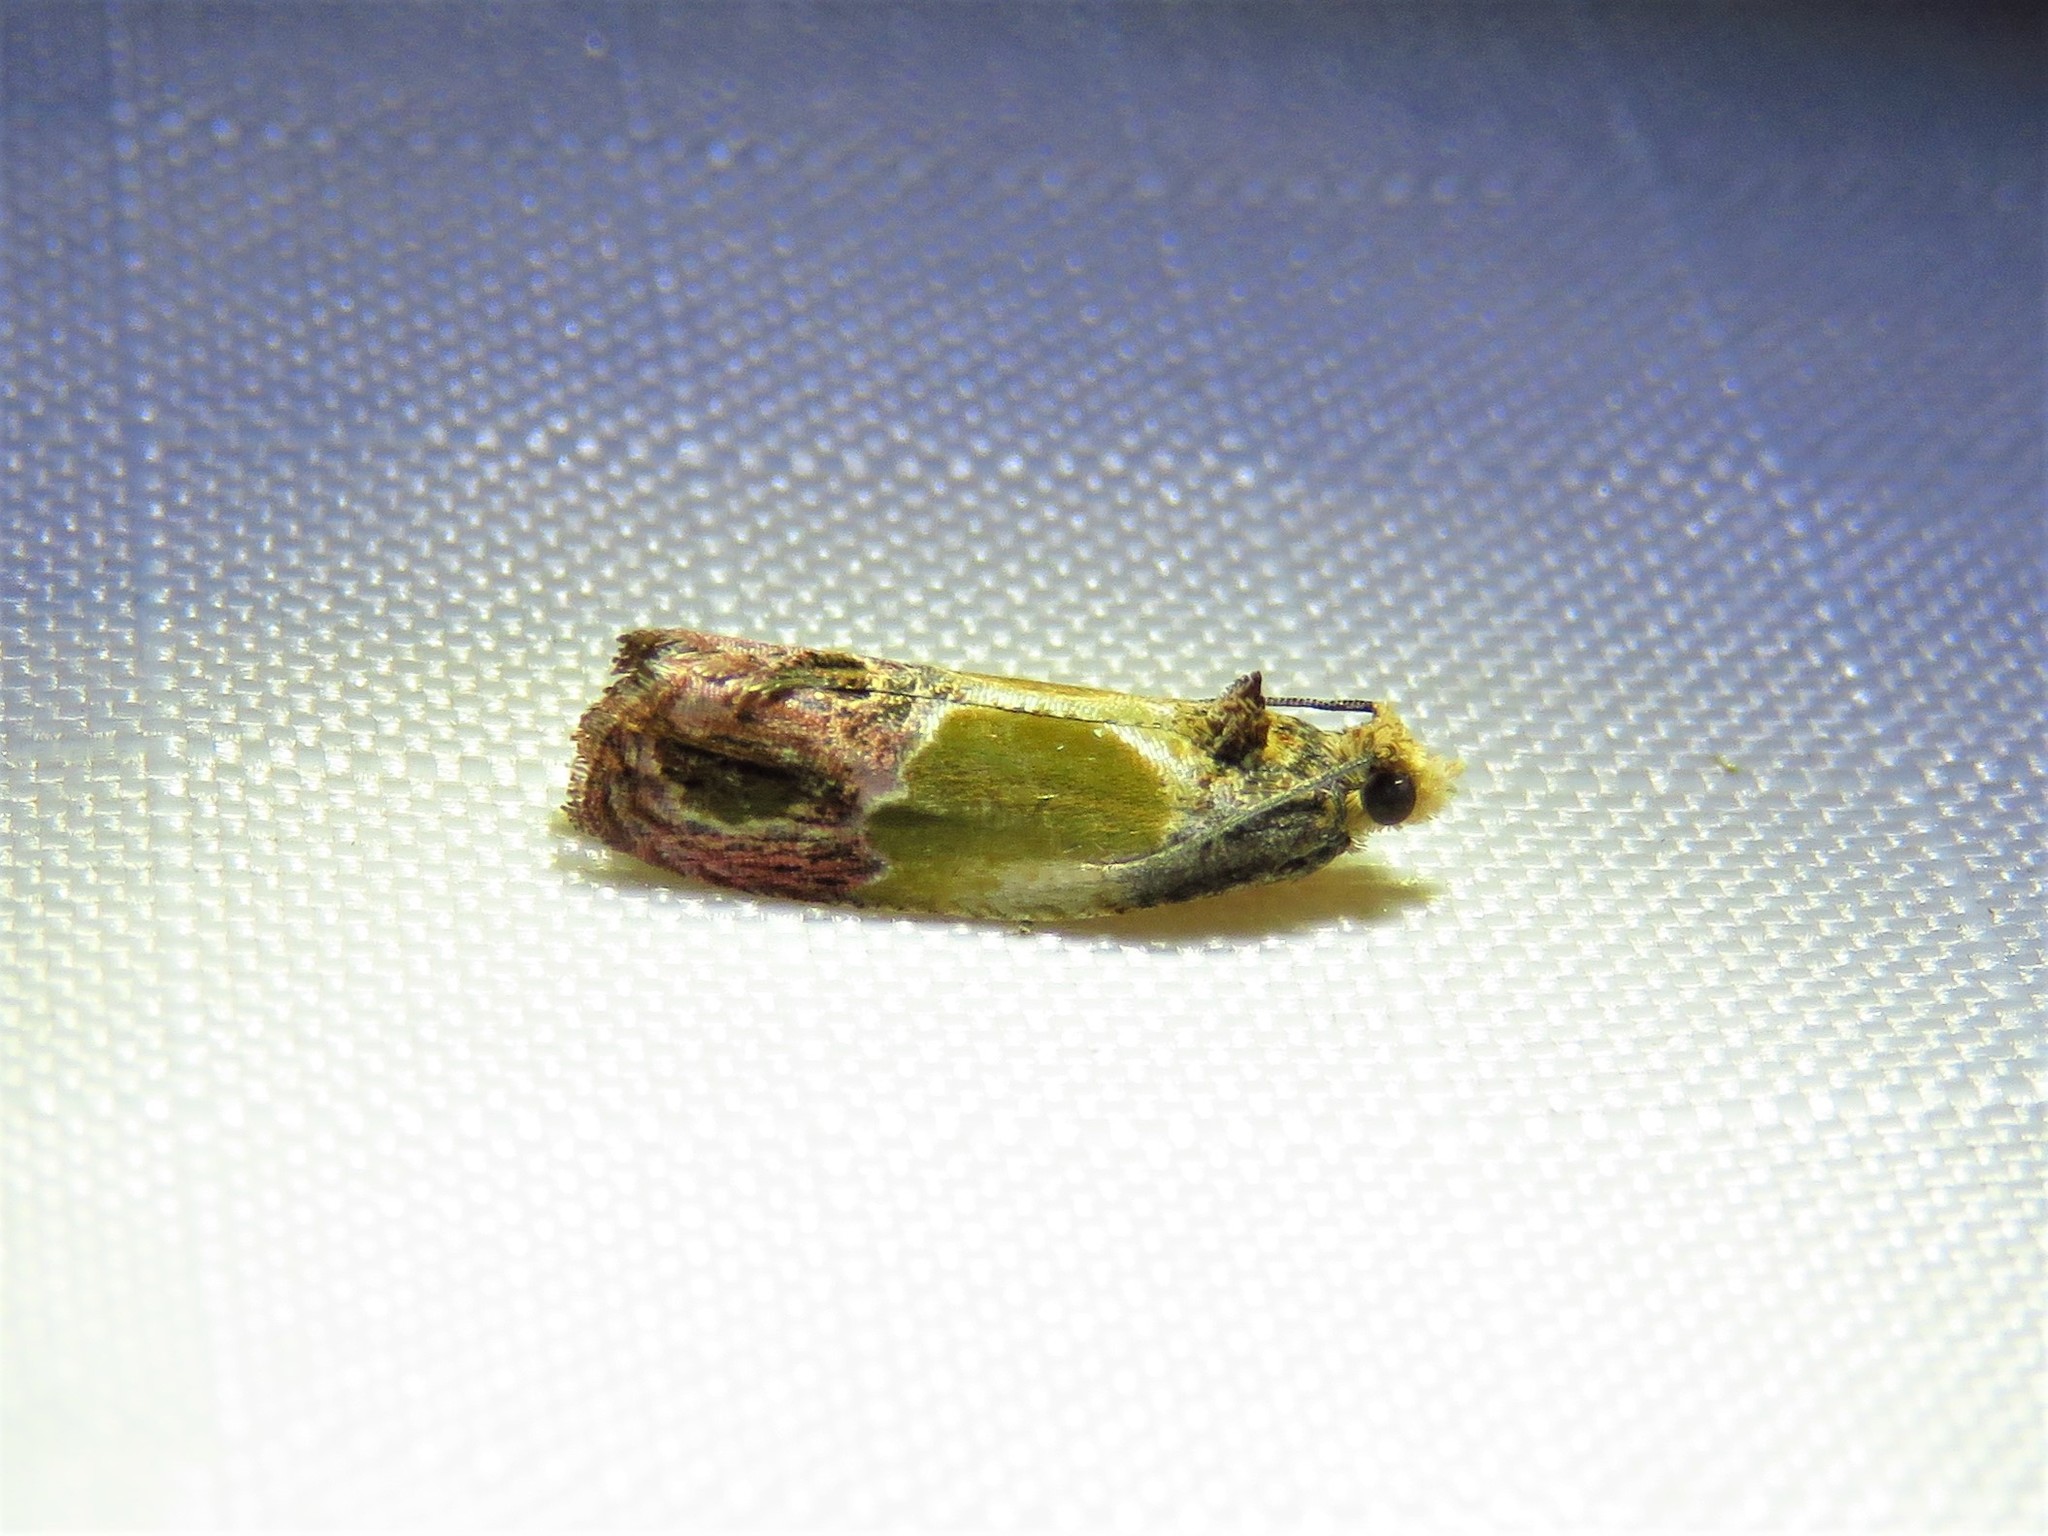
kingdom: Animalia
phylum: Arthropoda
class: Insecta
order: Lepidoptera
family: Tortricidae
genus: Eumarozia
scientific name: Eumarozia malachitana
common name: Sculptured moth
